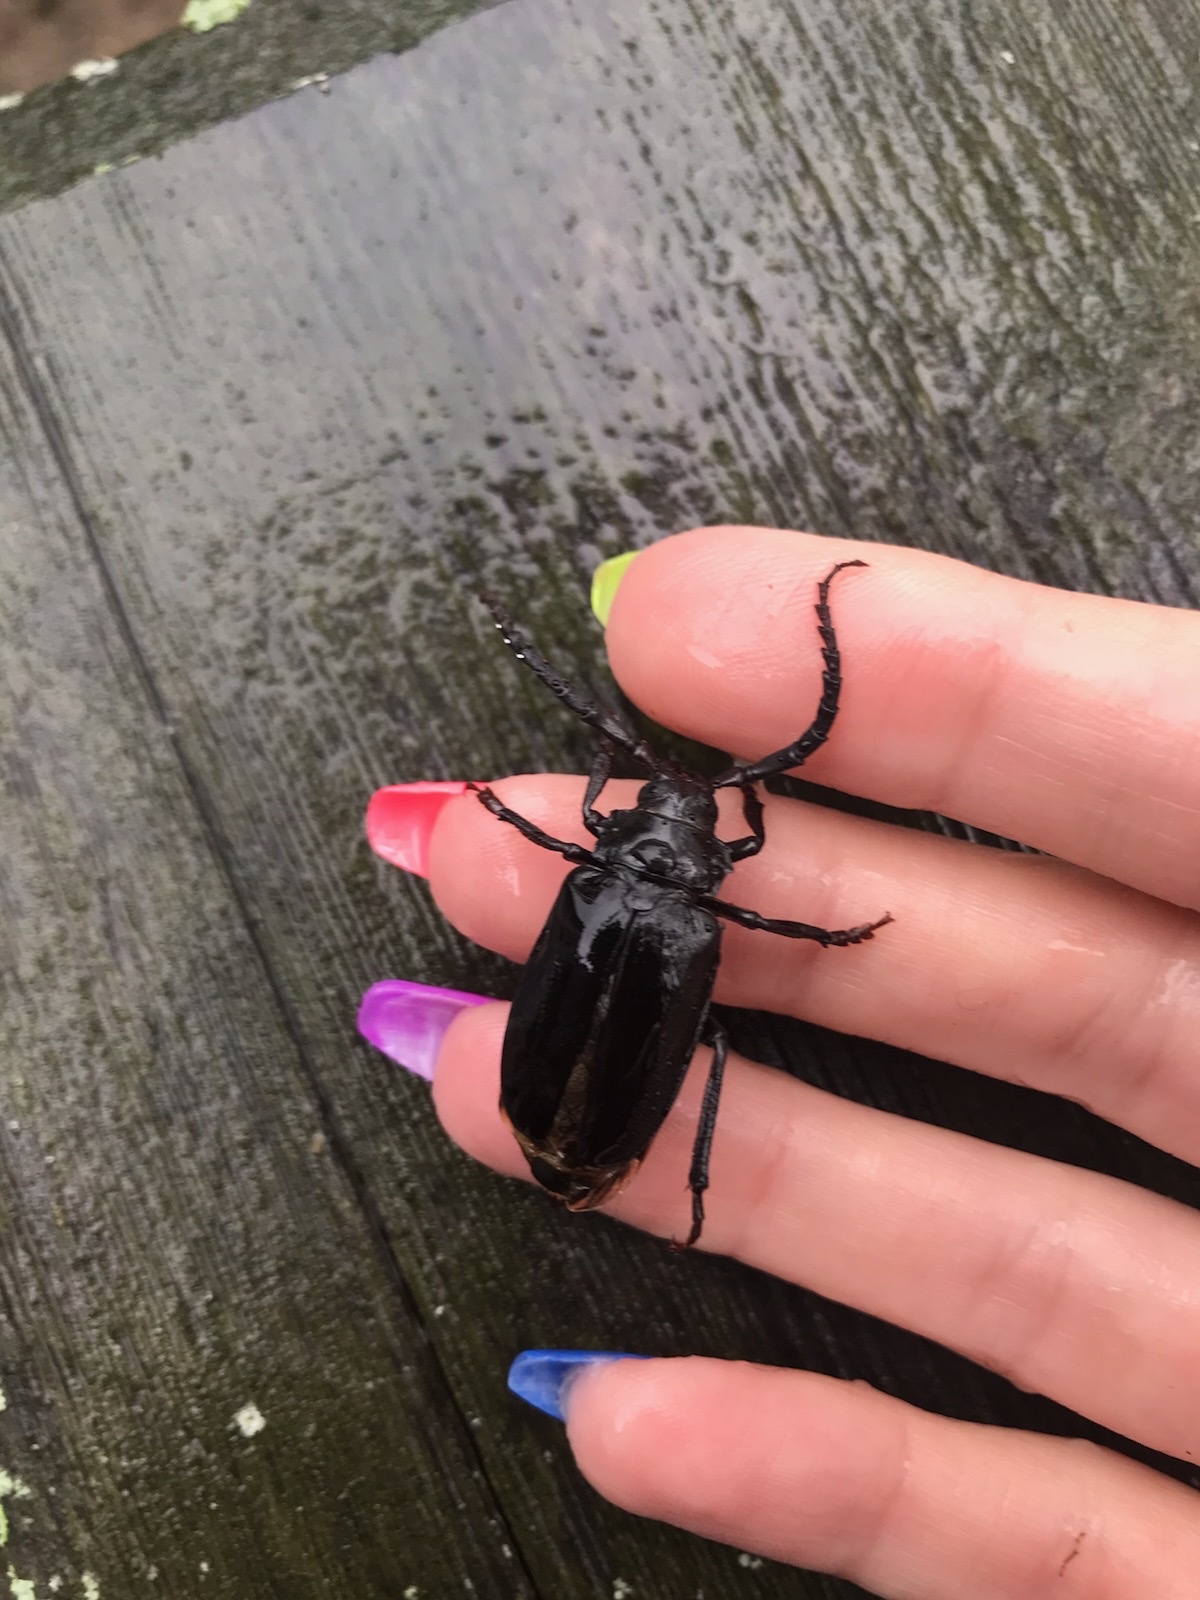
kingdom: Animalia
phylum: Arthropoda
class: Insecta
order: Coleoptera
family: Cerambycidae
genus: Prionus
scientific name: Prionus laticollis
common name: Broad necked prionus
